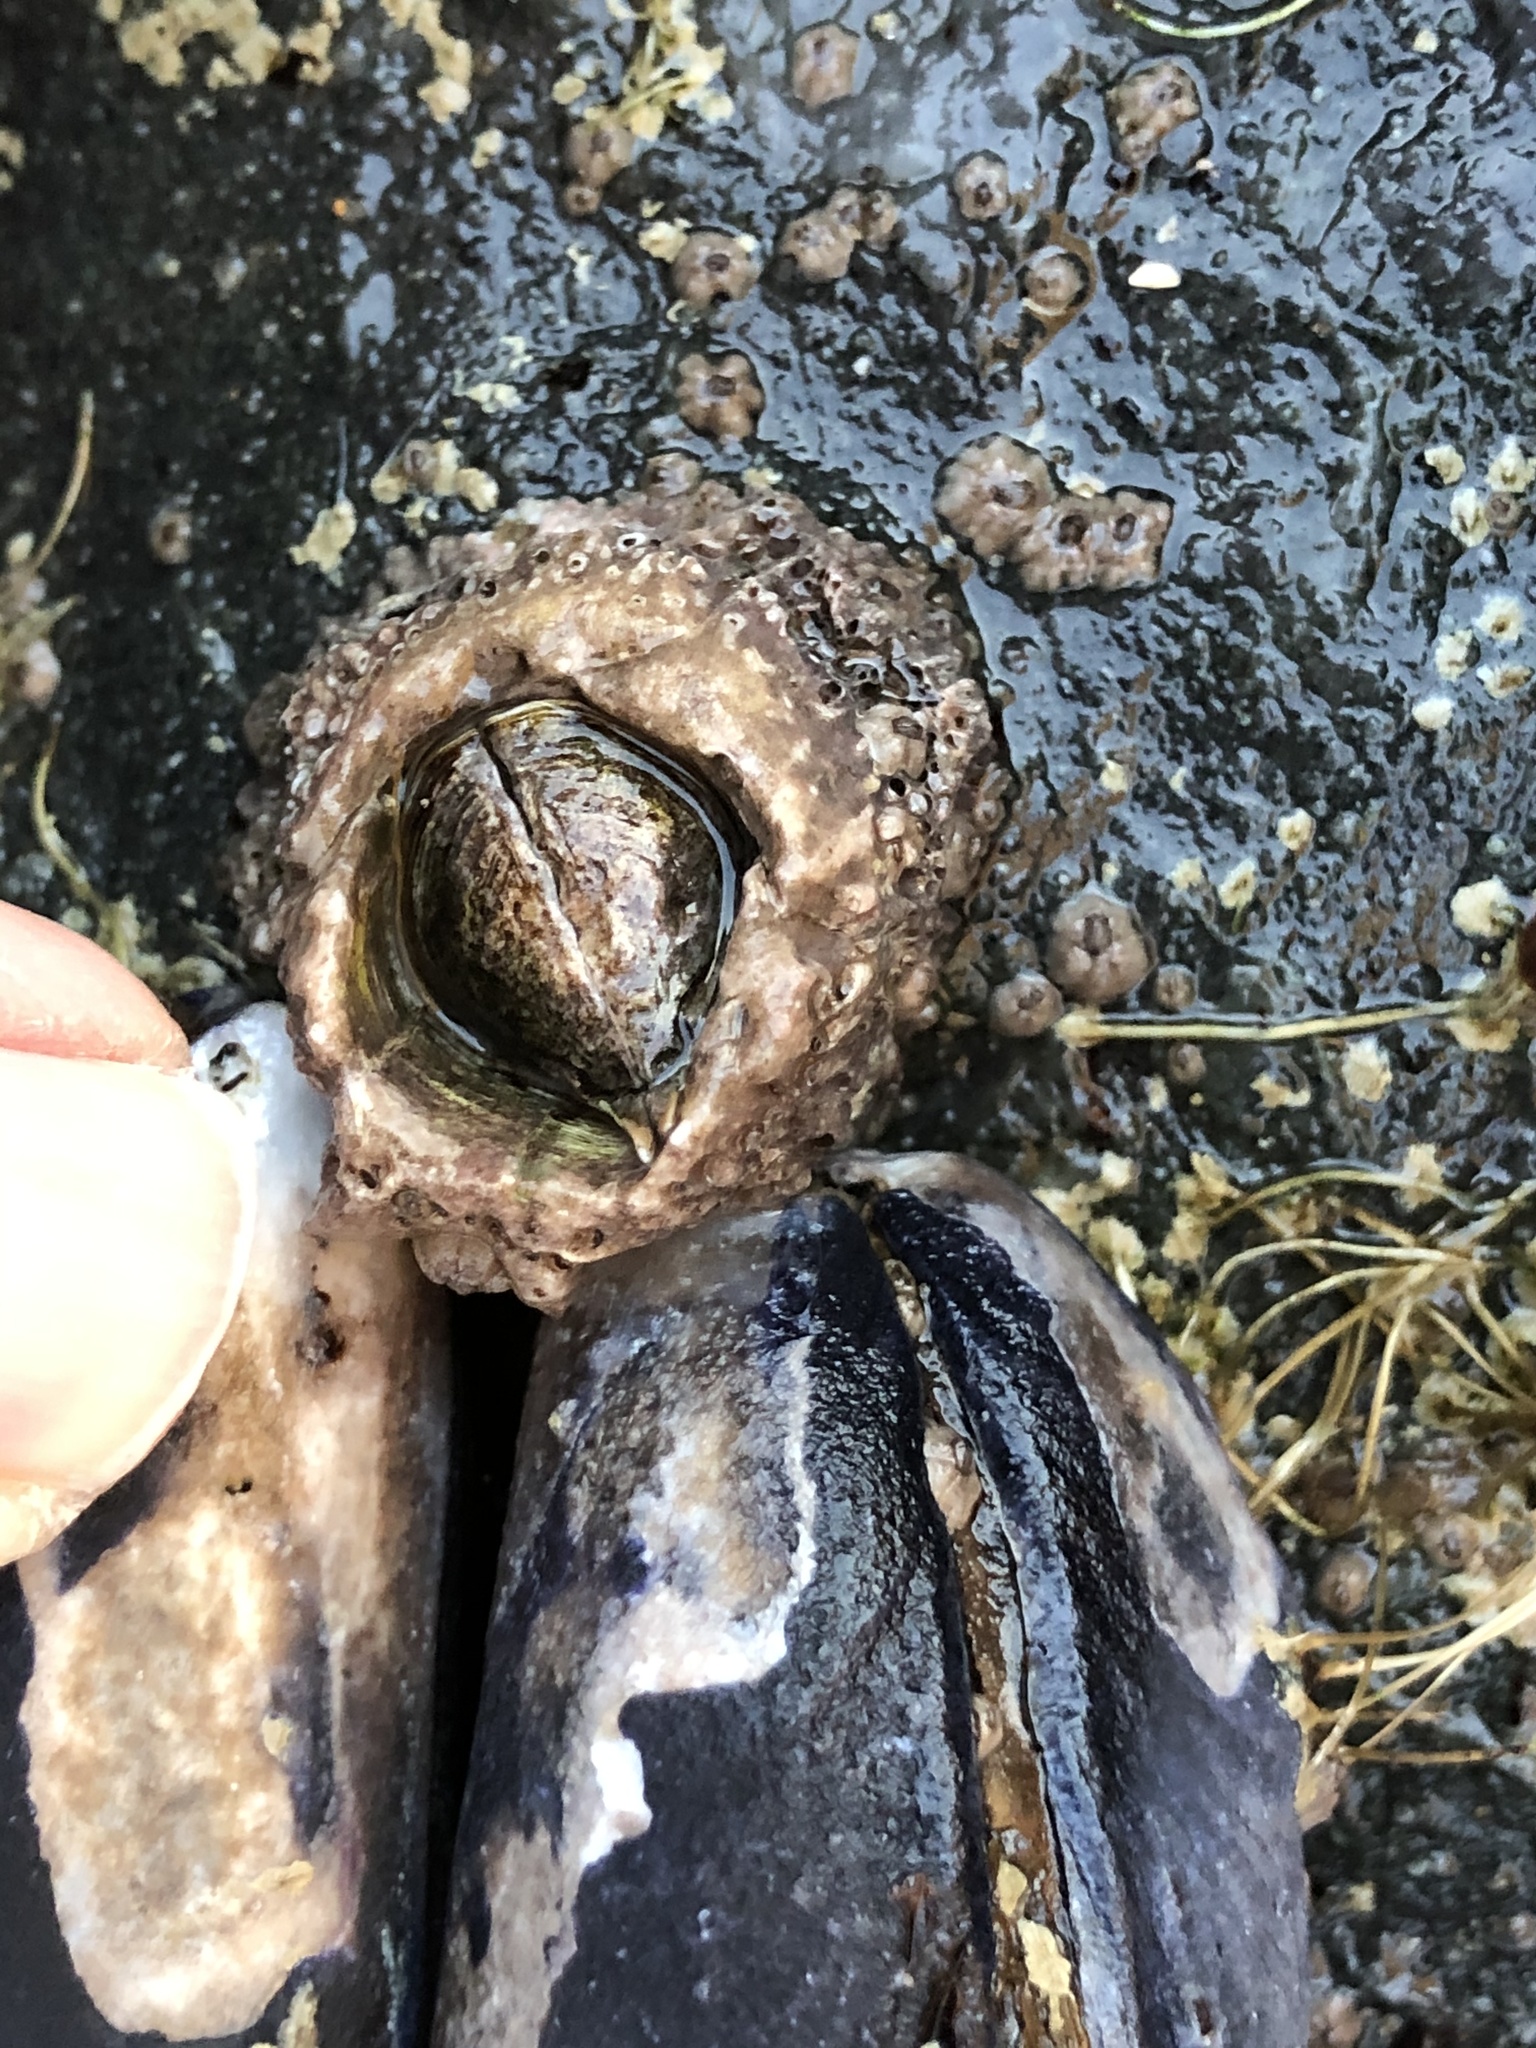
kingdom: Animalia
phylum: Arthropoda
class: Maxillopoda
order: Sessilia
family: Archaeobalanidae
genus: Semibalanus
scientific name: Semibalanus cariosus
